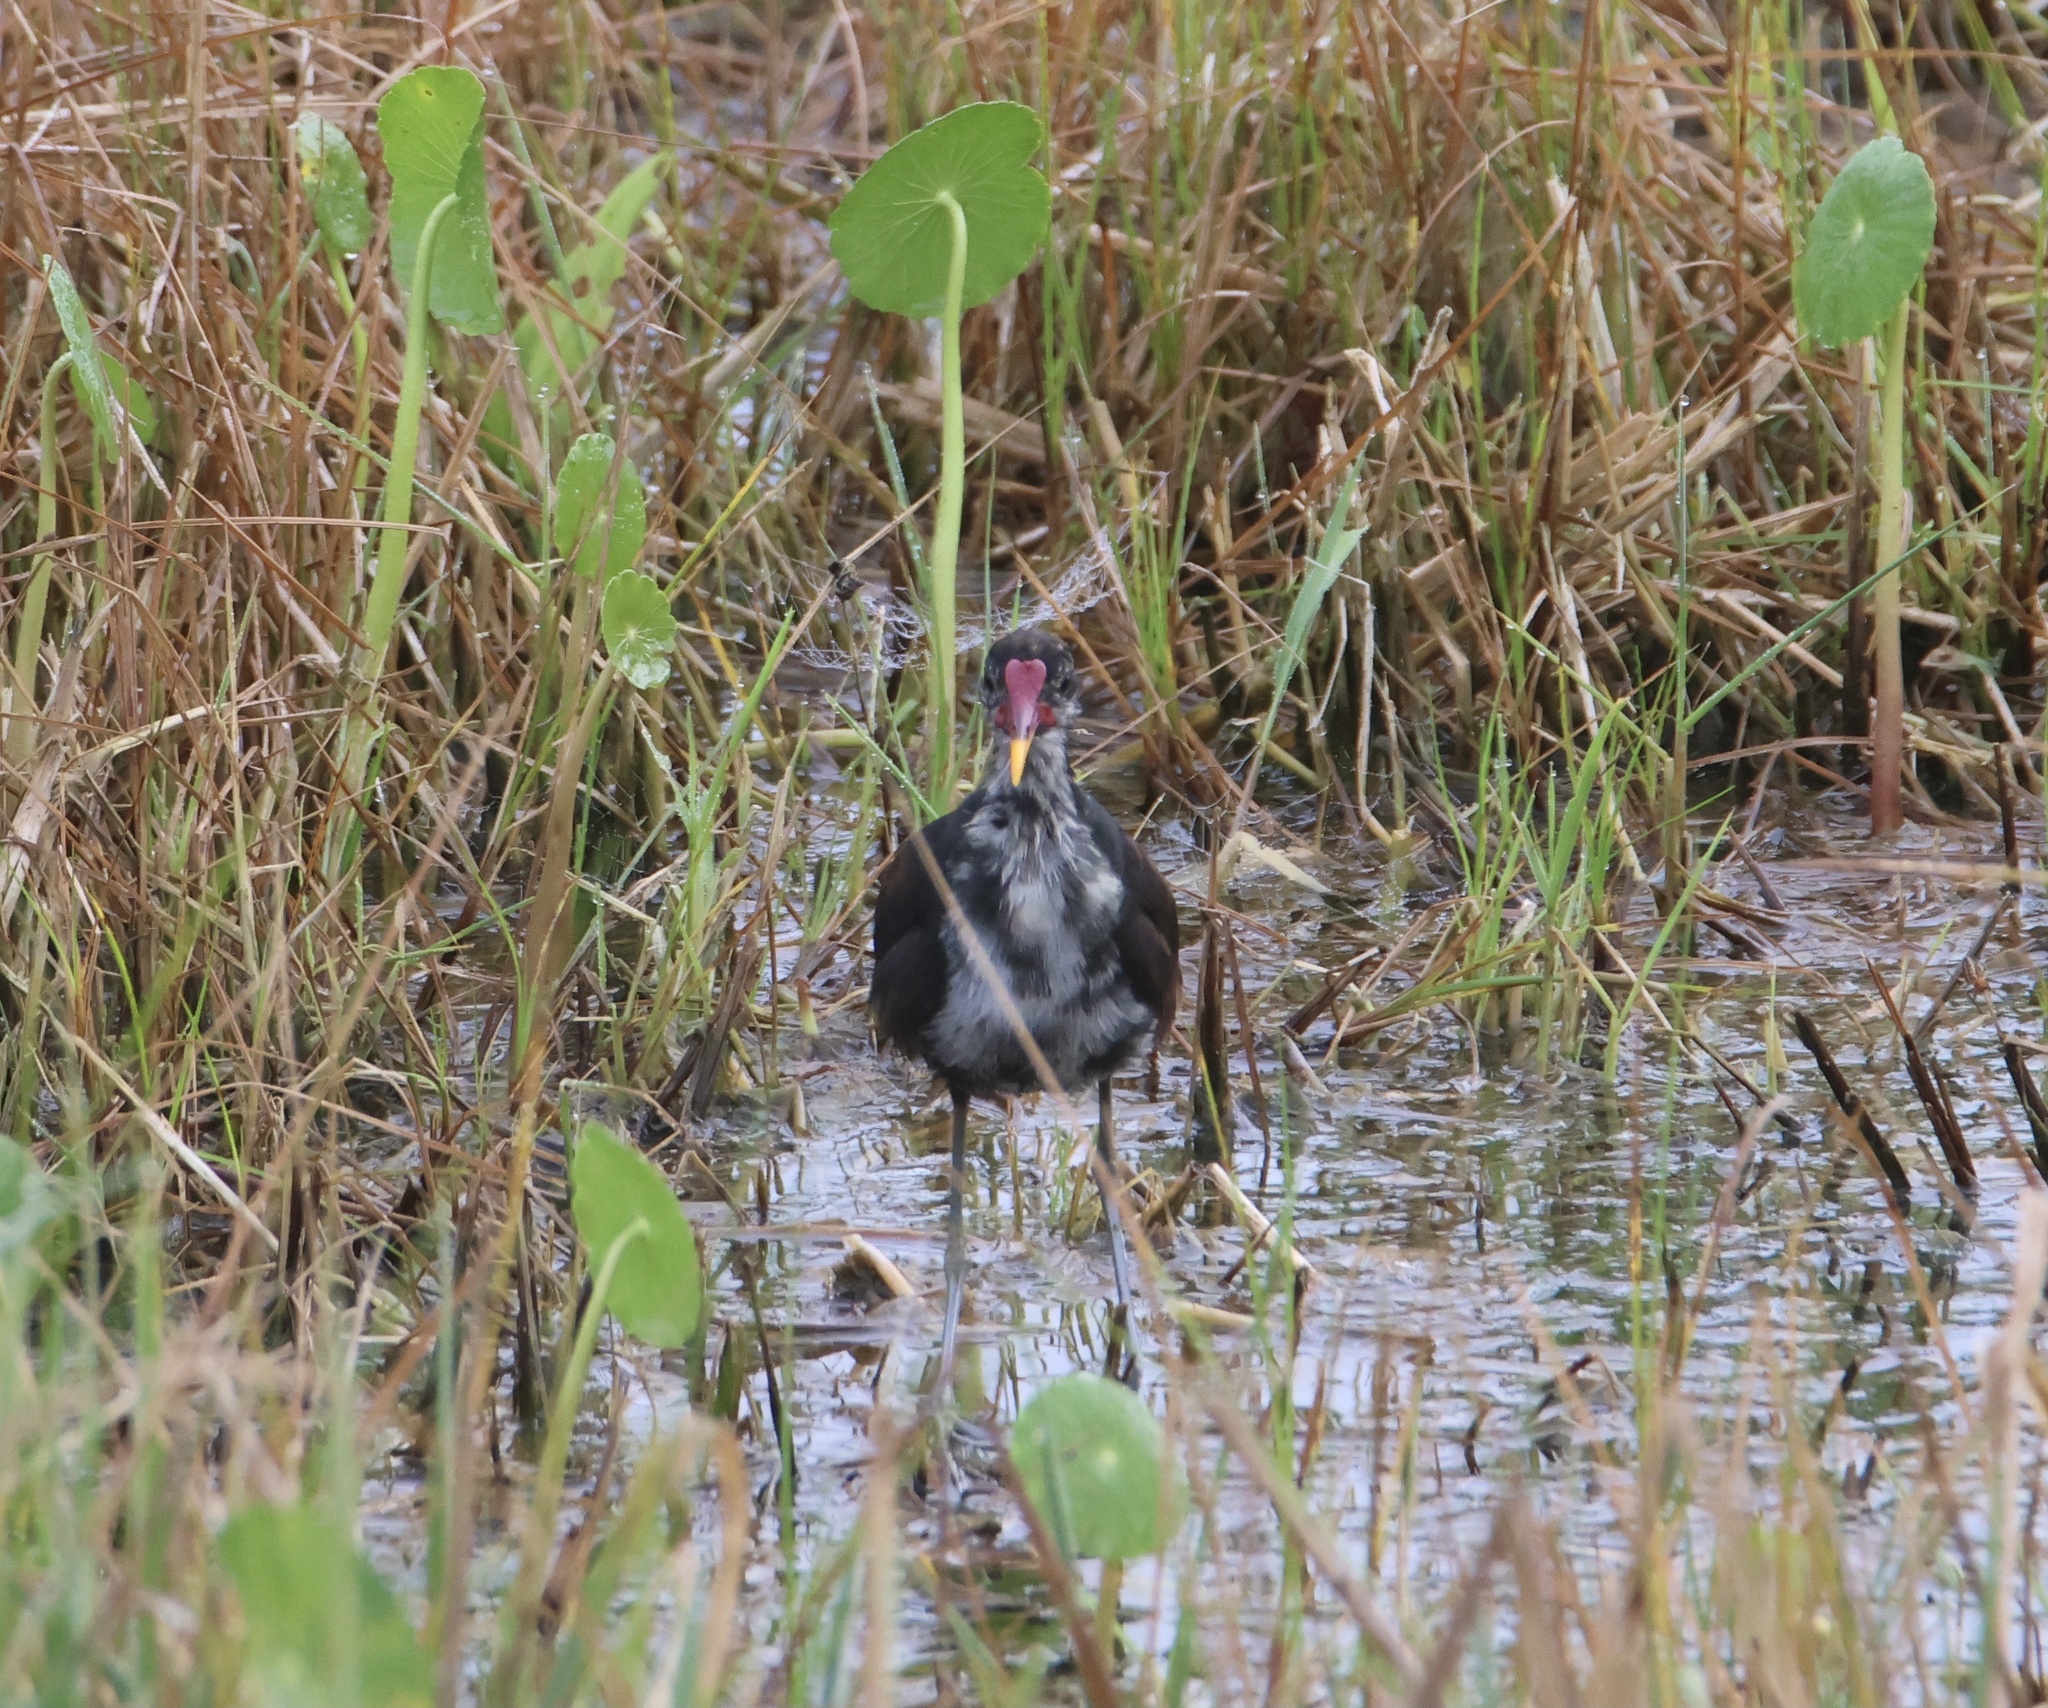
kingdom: Animalia
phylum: Chordata
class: Aves
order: Charadriiformes
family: Jacanidae
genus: Jacana
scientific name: Jacana jacana
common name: Wattled jacana
